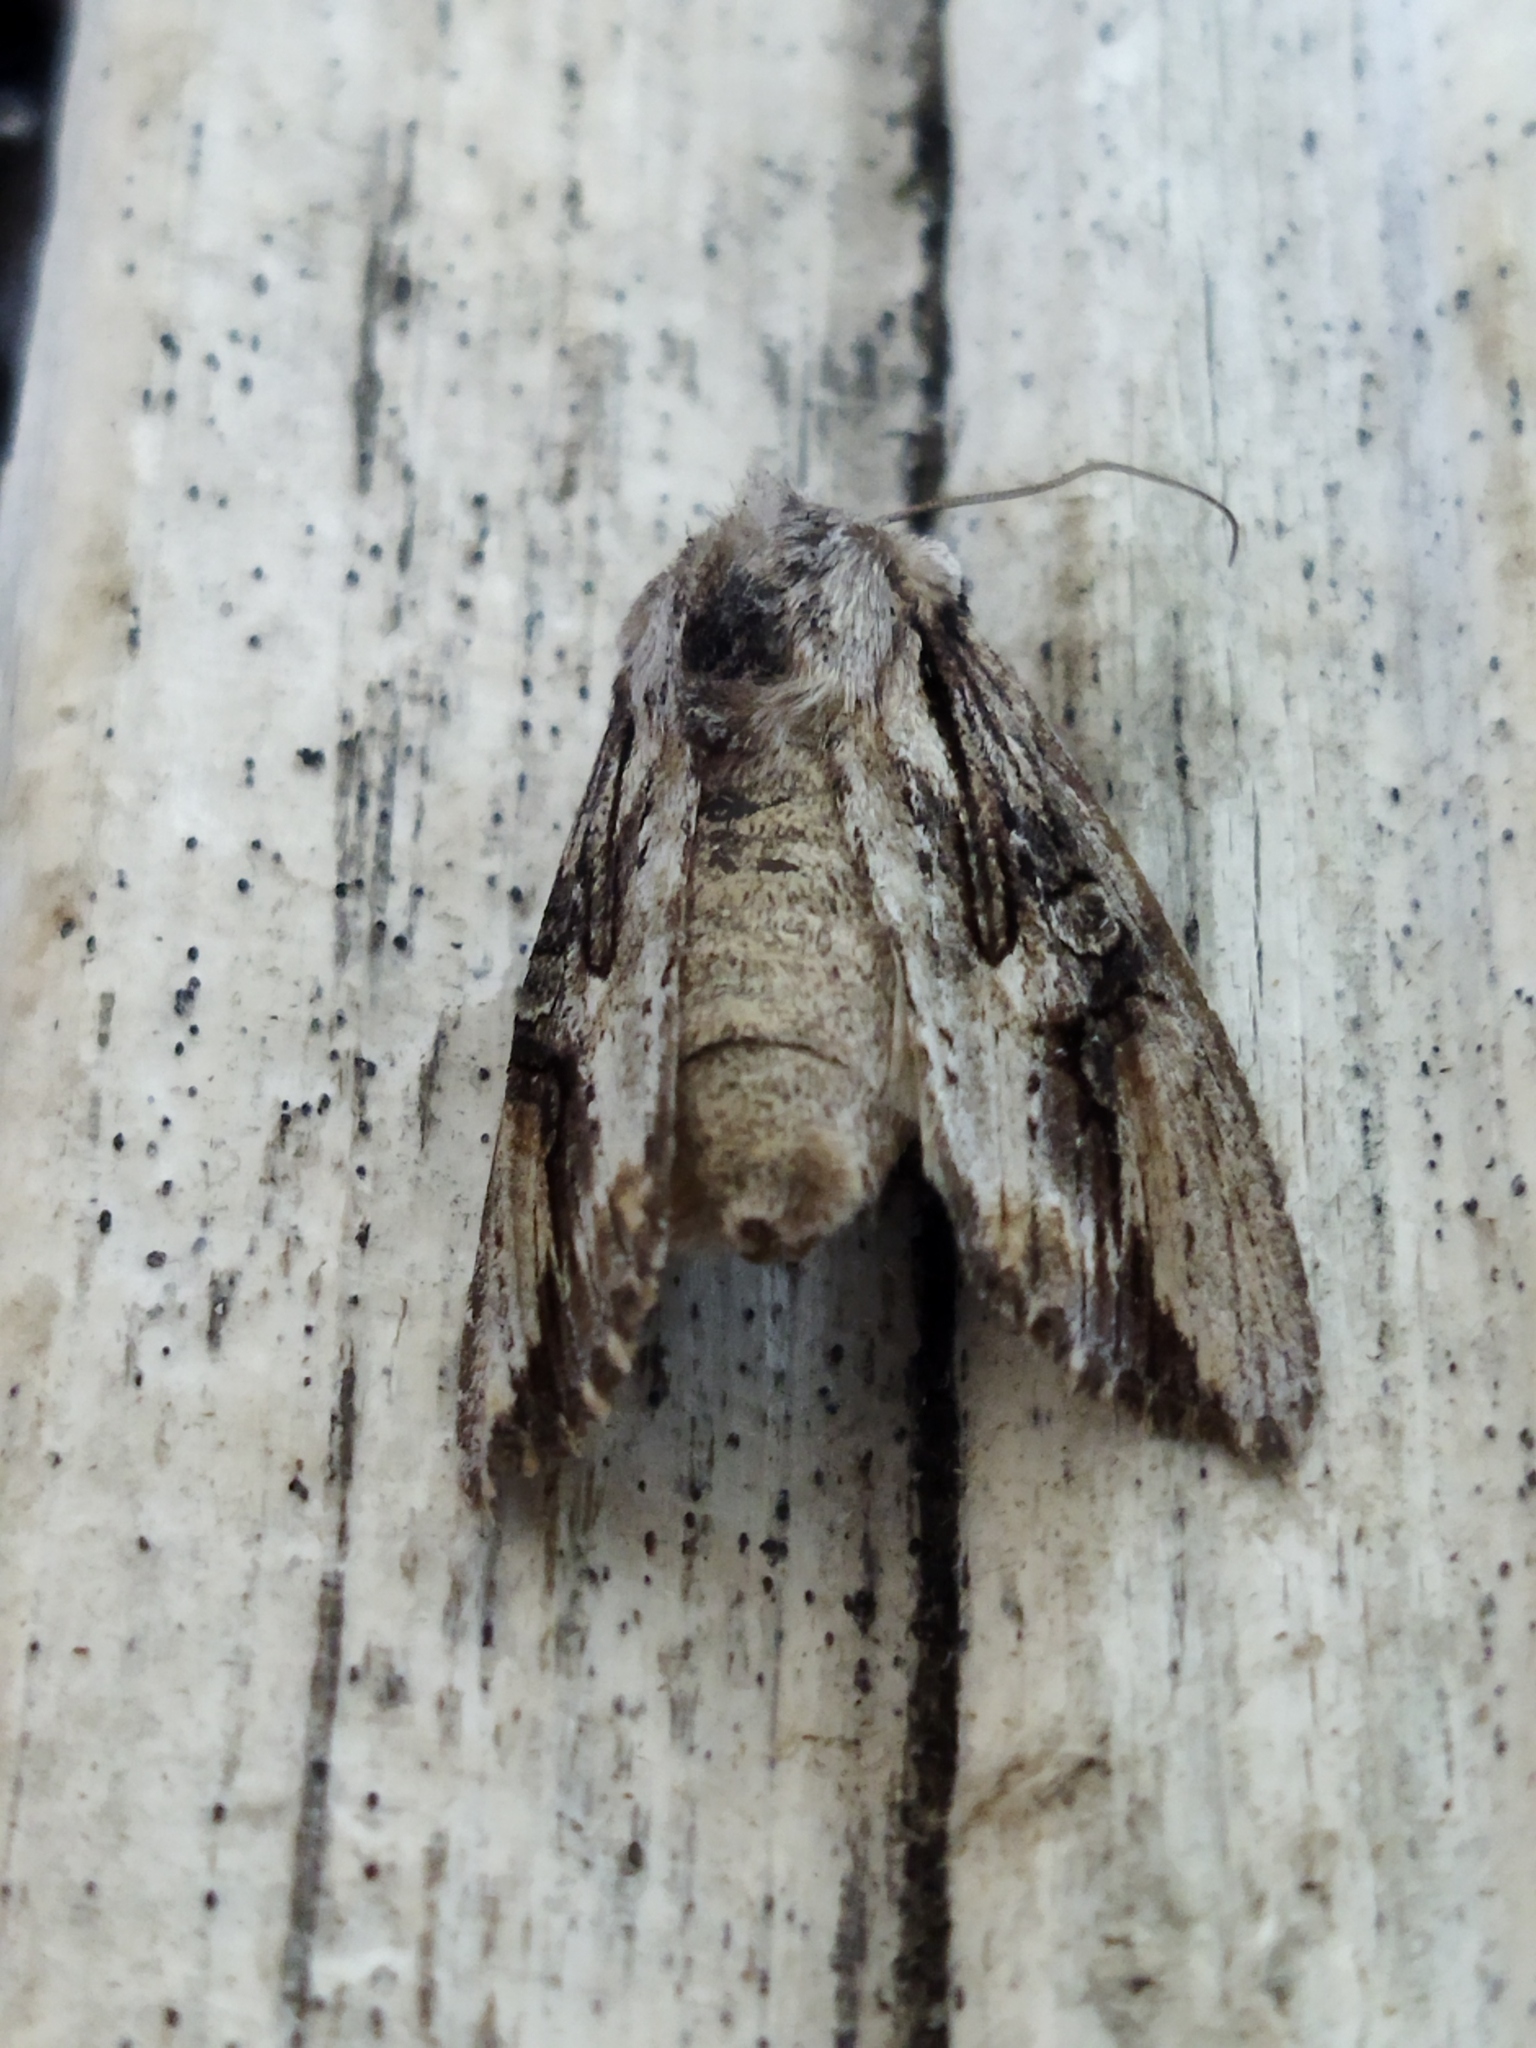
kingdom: Animalia
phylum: Arthropoda
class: Insecta
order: Lepidoptera
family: Noctuidae
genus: Egira
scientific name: Egira
